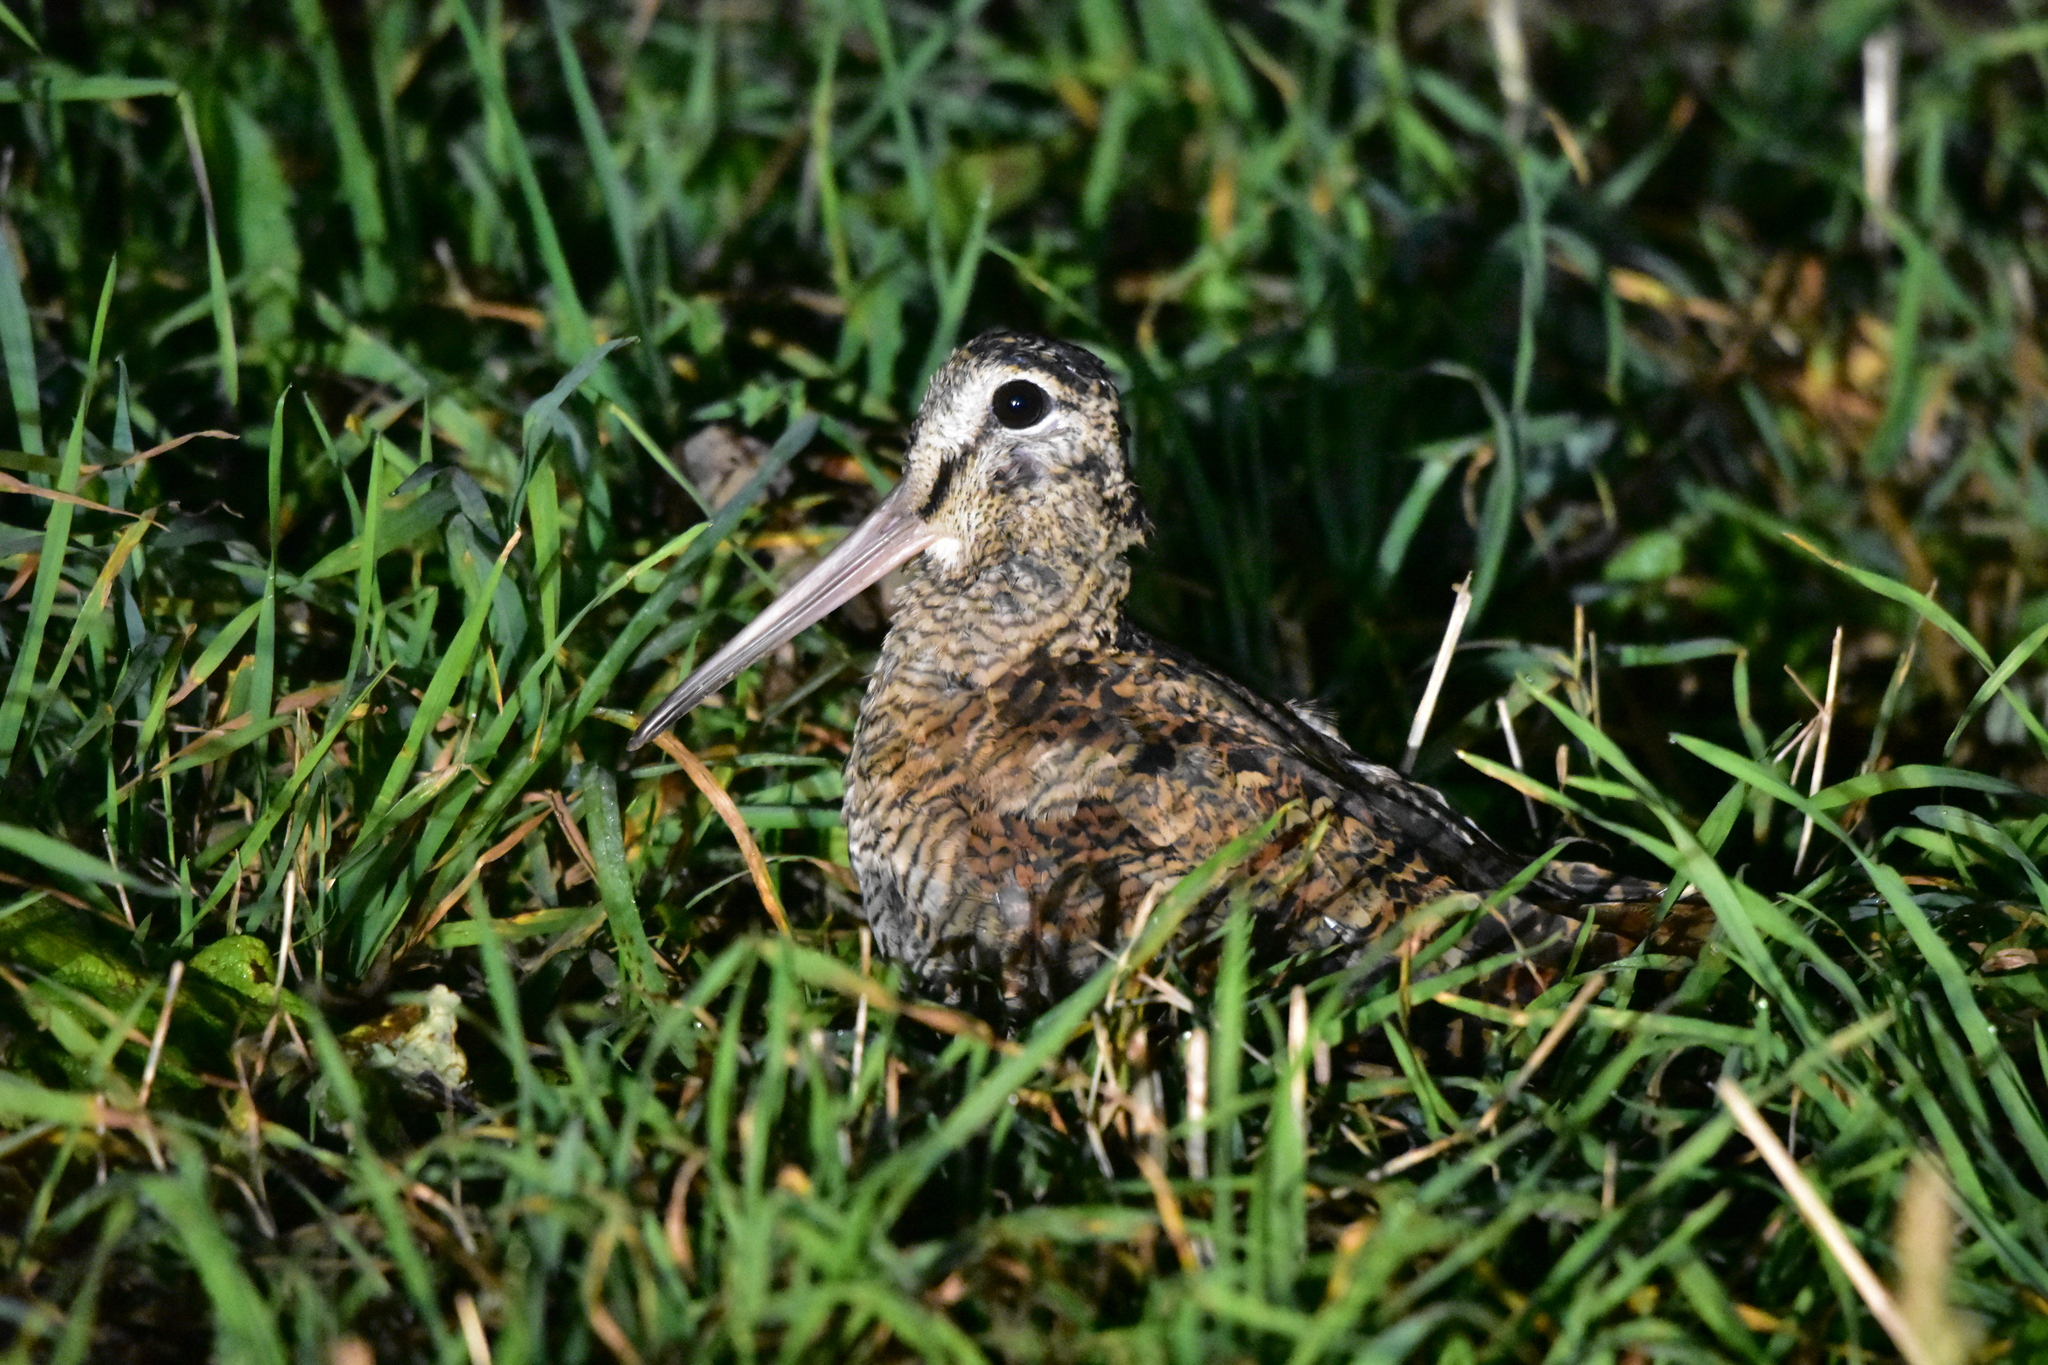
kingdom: Animalia
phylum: Chordata
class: Aves
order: Charadriiformes
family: Scolopacidae
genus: Scolopax
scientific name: Scolopax rusticola
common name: Eurasian woodcock
